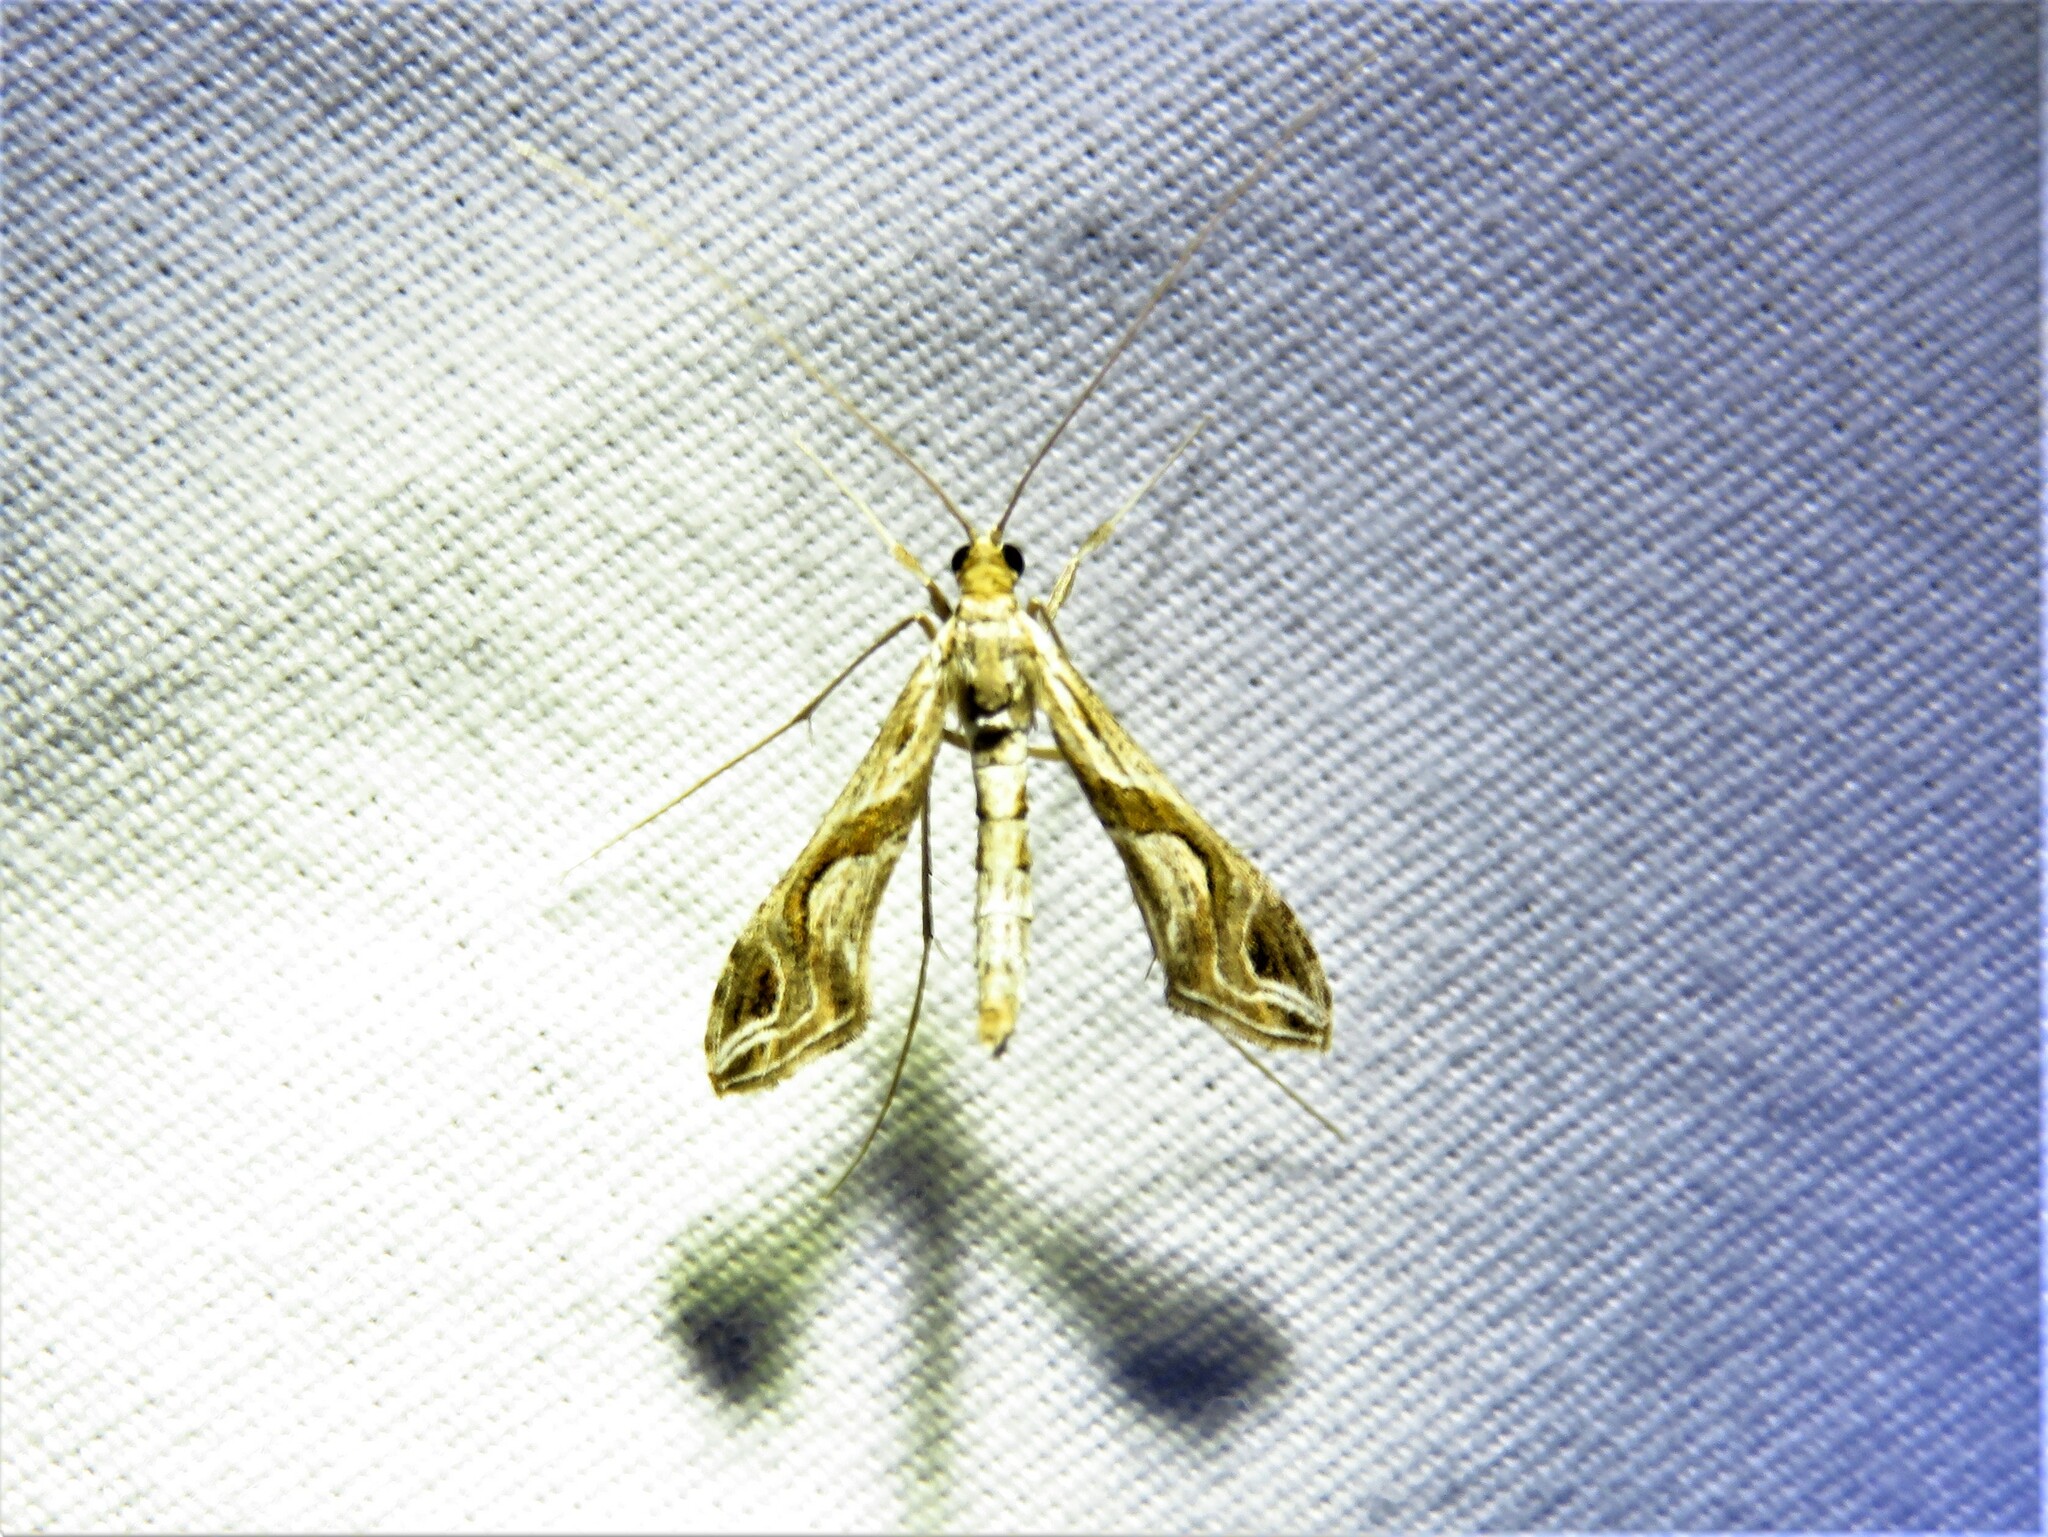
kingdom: Animalia
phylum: Arthropoda
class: Insecta
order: Lepidoptera
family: Crambidae
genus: Lineodes
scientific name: Lineodes integra
